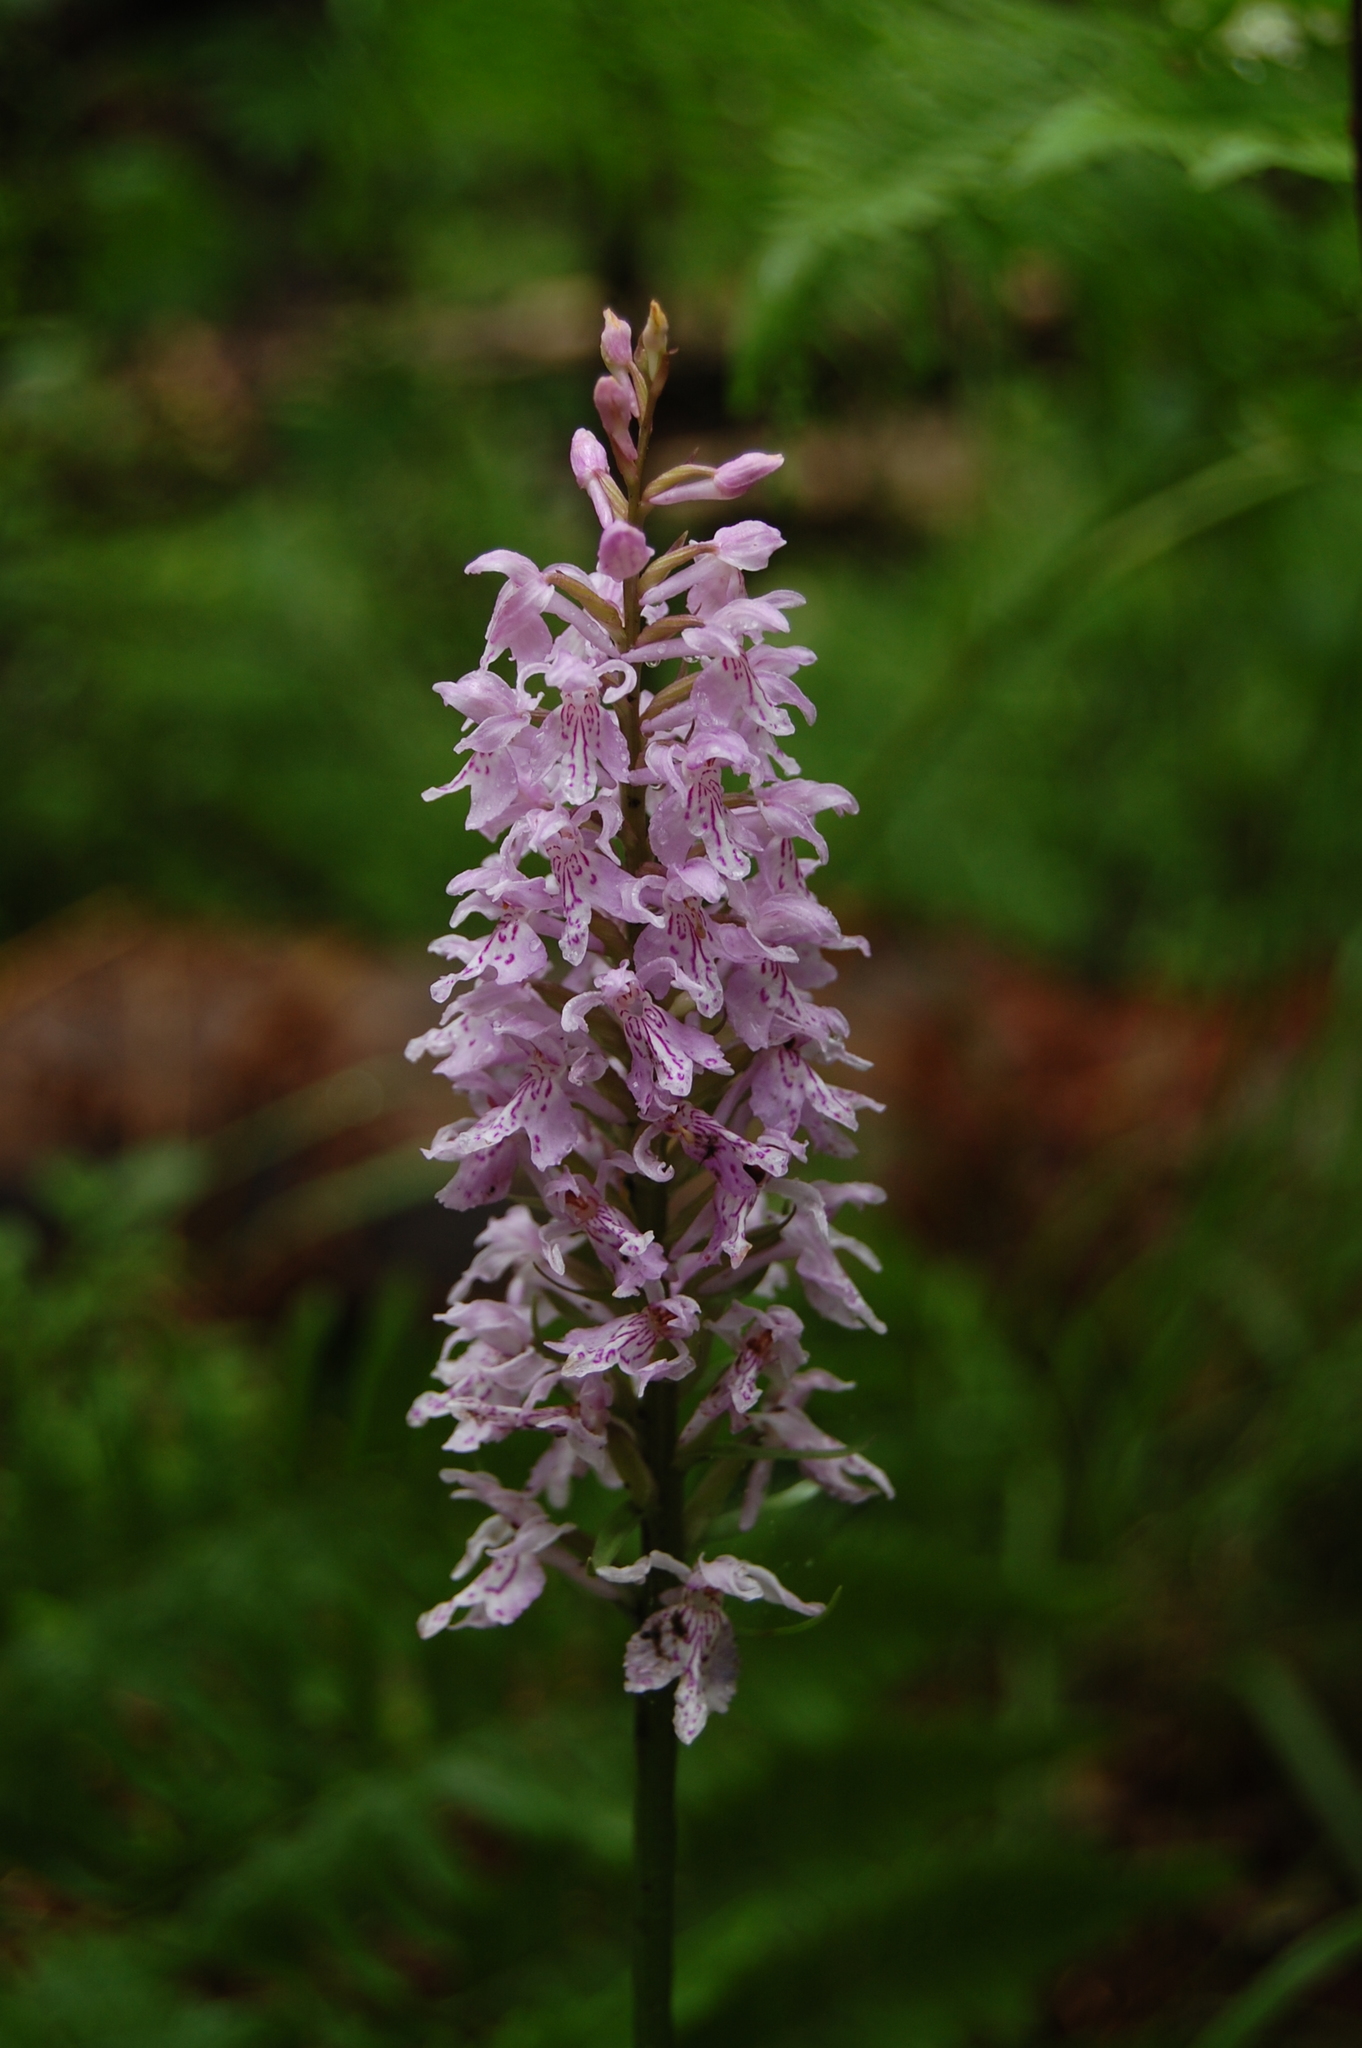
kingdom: Plantae
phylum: Tracheophyta
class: Liliopsida
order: Asparagales
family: Orchidaceae
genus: Dactylorhiza
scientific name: Dactylorhiza maculata
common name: Heath spotted-orchid
